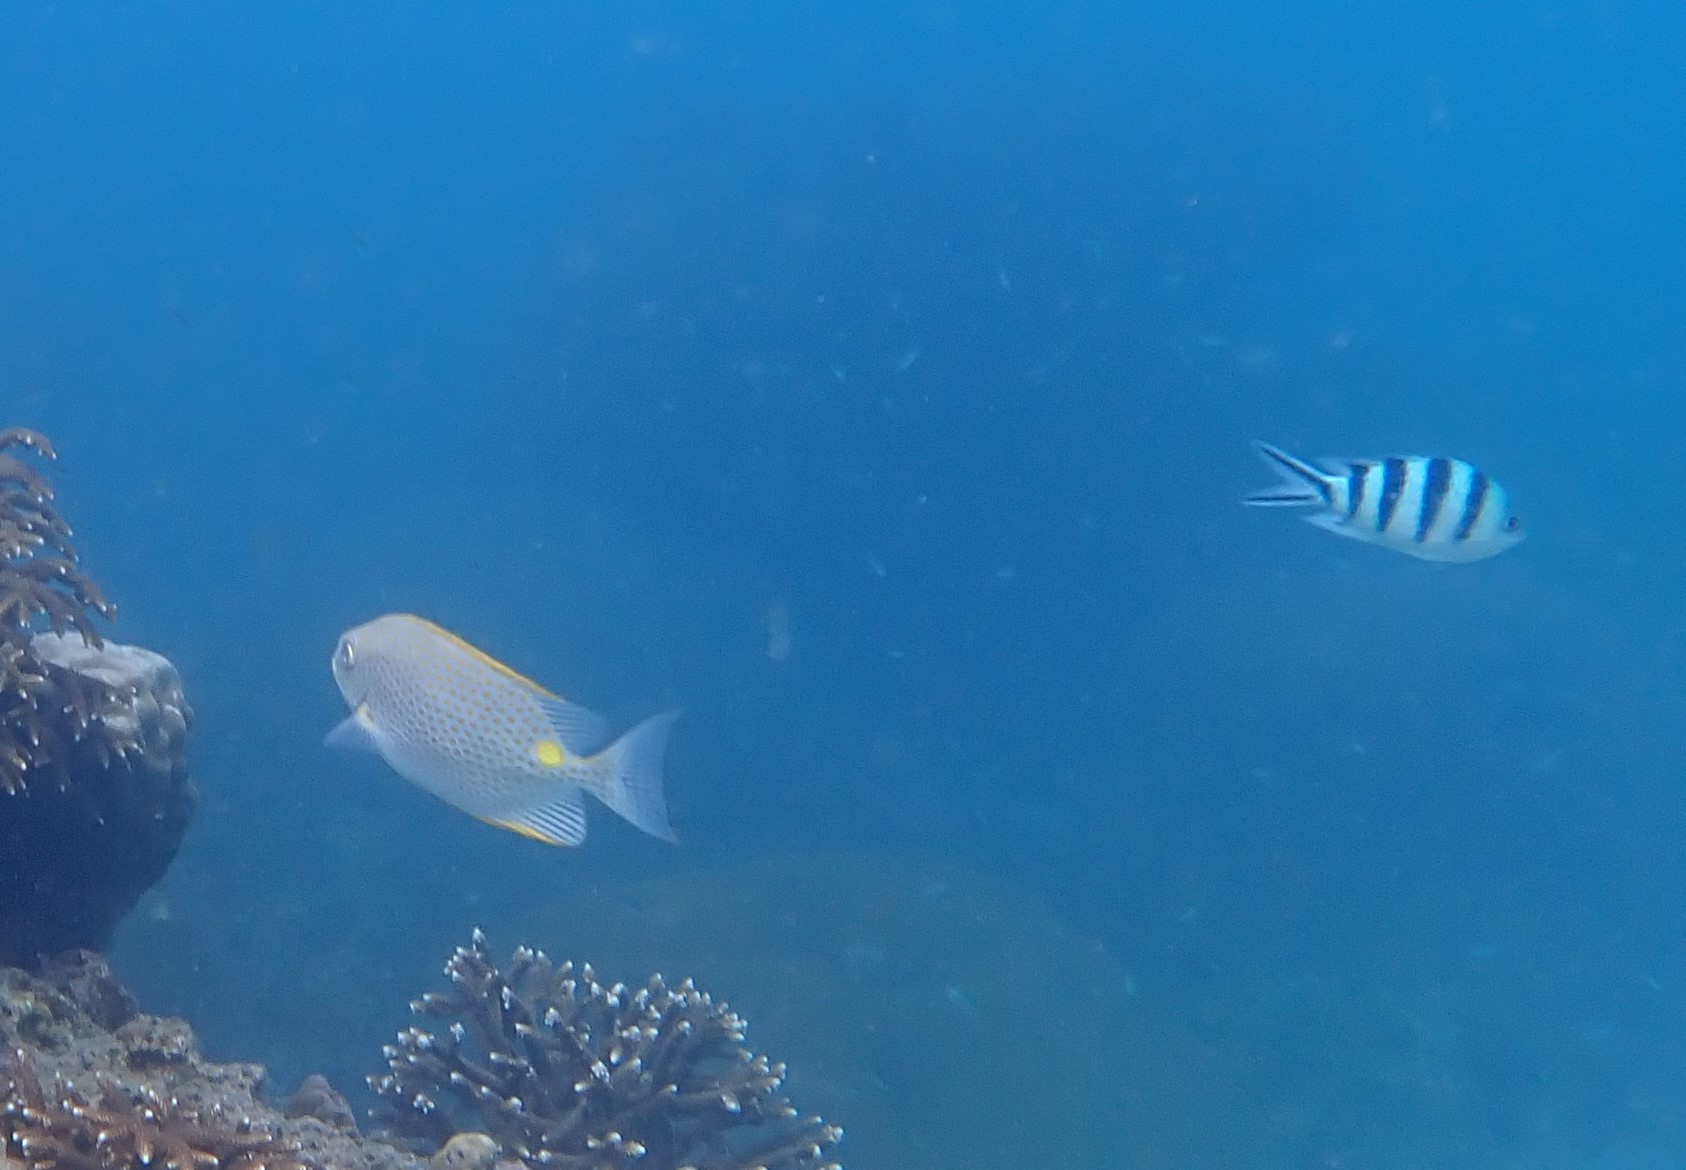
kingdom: Animalia
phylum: Chordata
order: Perciformes
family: Siganidae
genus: Siganus
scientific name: Siganus guttatus
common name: Golden rabbitfish
